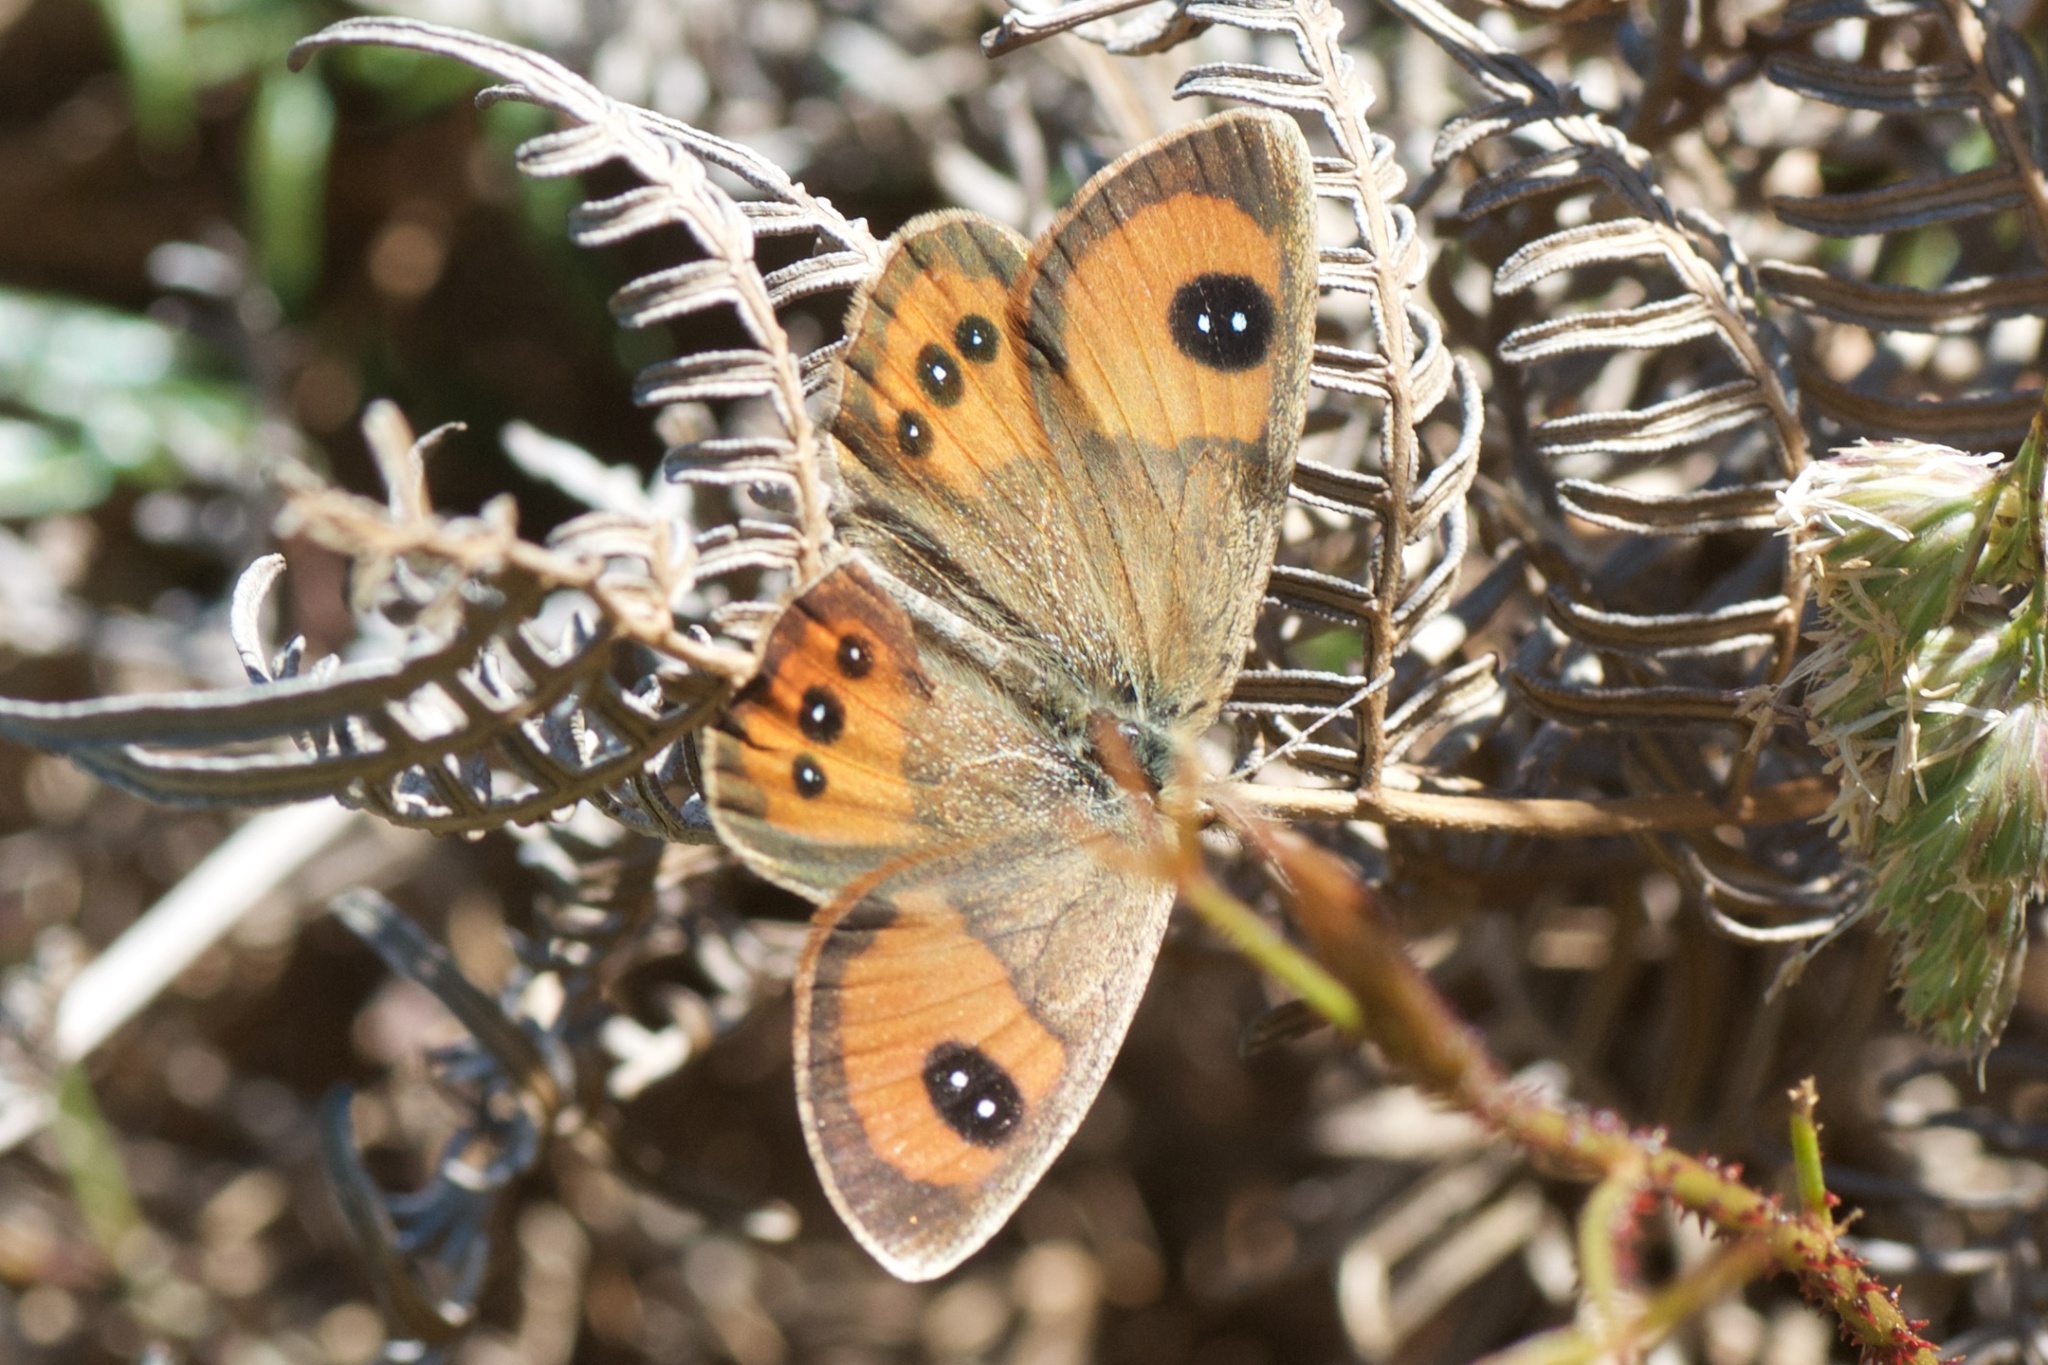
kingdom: Animalia
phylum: Arthropoda
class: Insecta
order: Lepidoptera
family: Nymphalidae
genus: Argyrophenga
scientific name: Argyrophenga antipodum
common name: Common tussock butterfly
